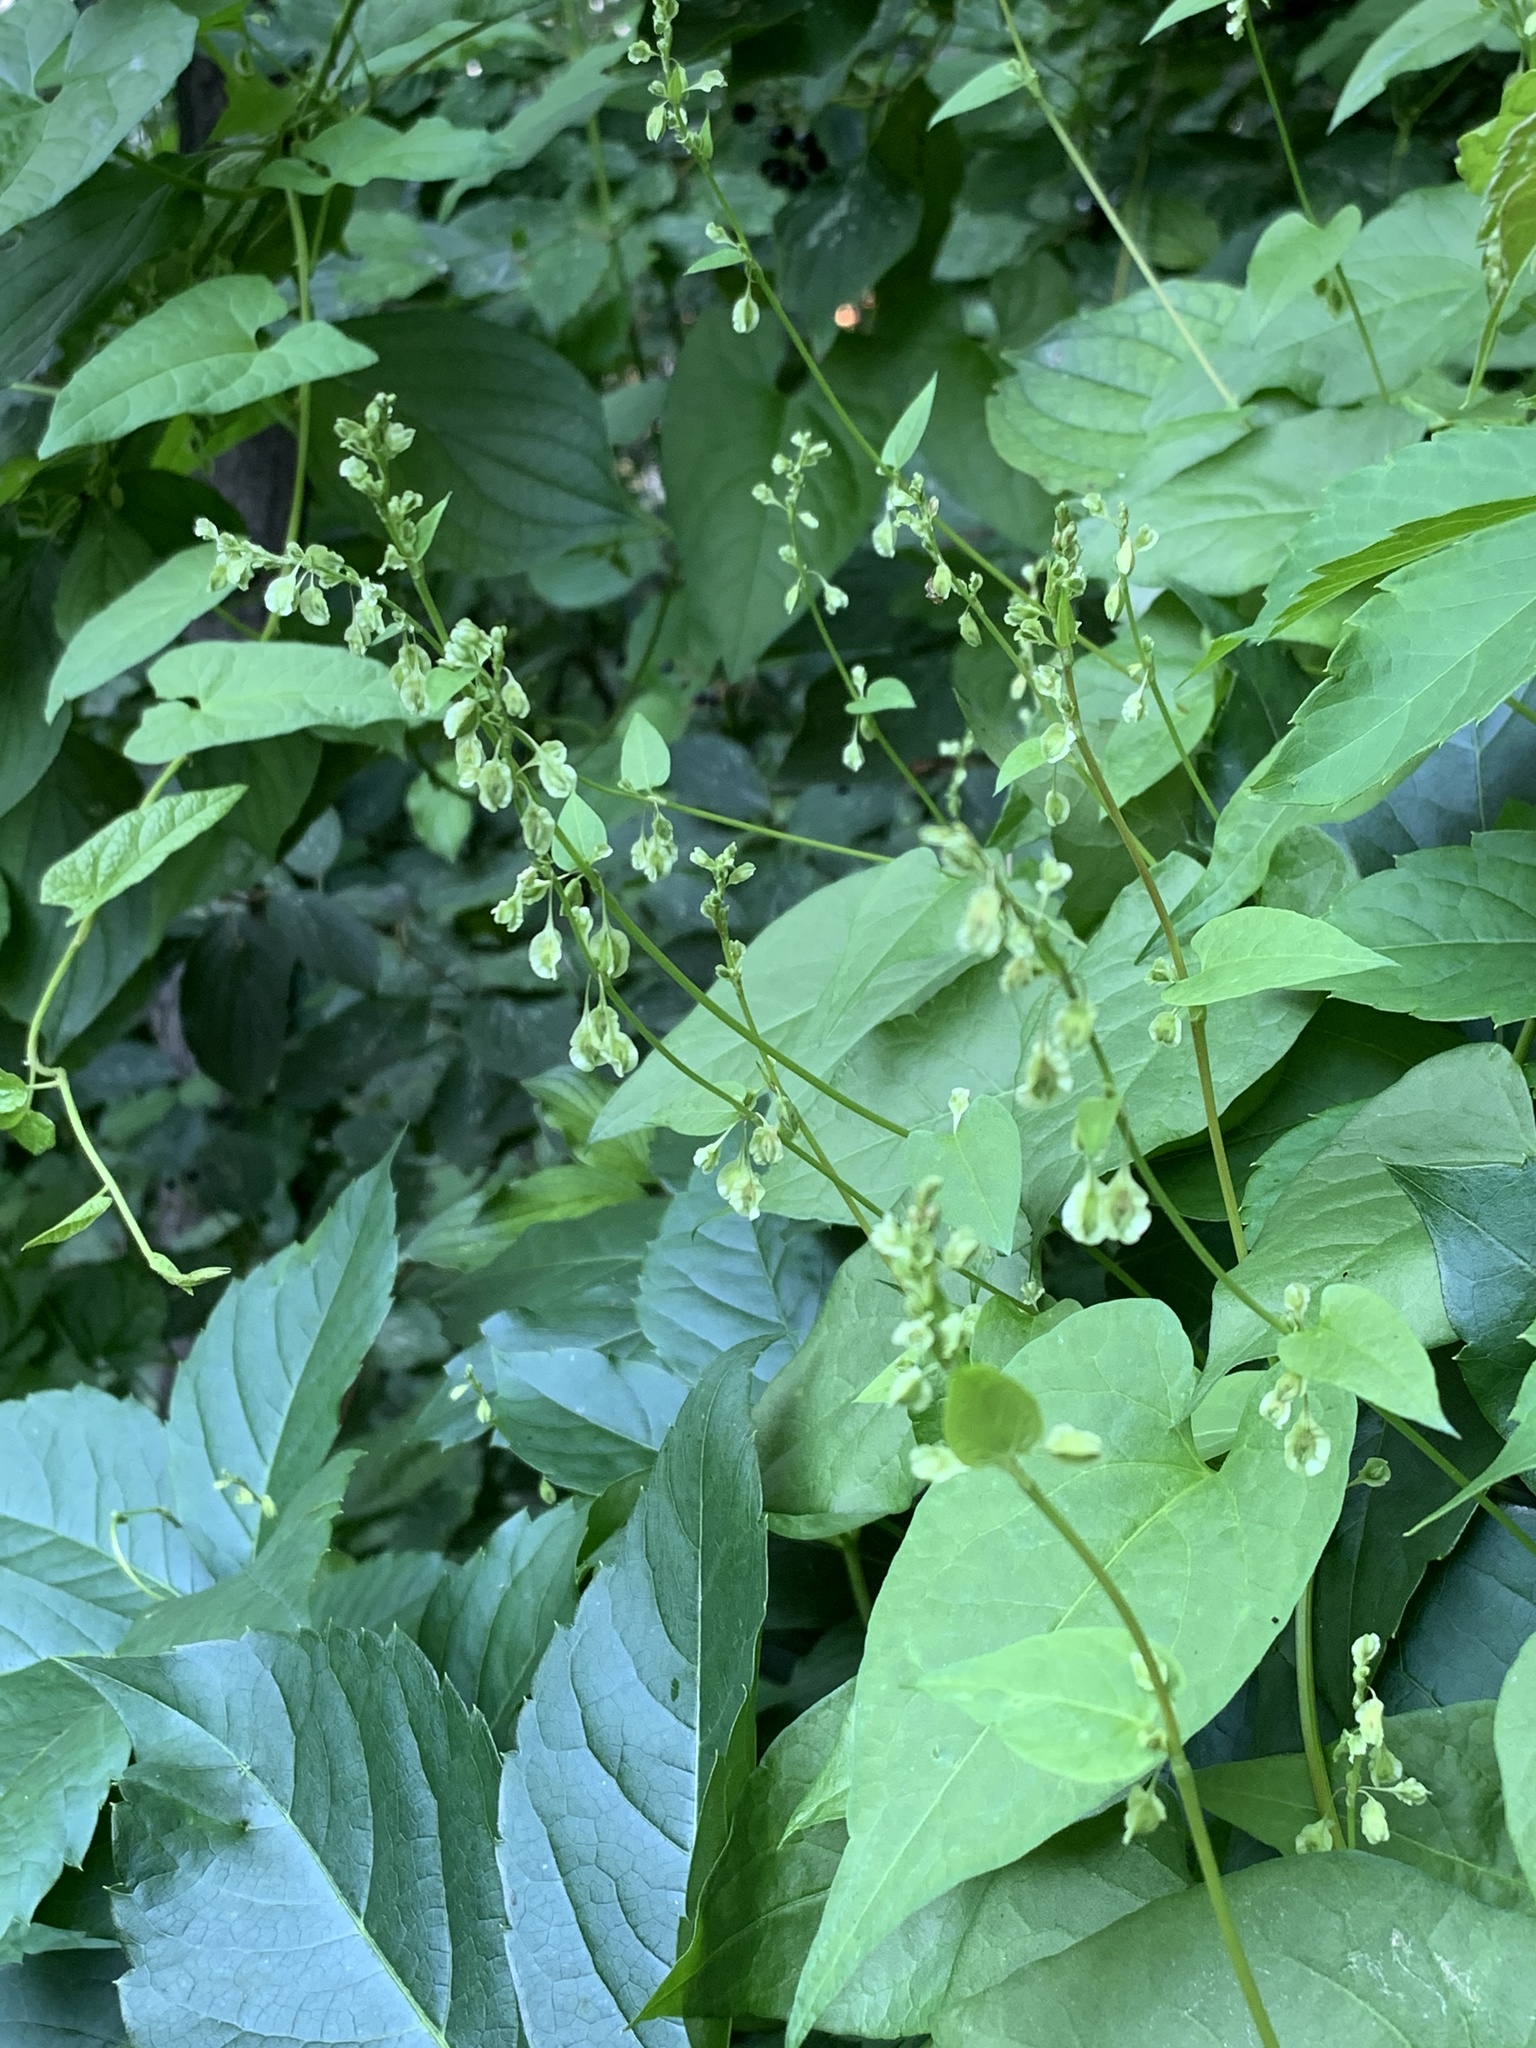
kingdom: Plantae
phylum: Tracheophyta
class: Magnoliopsida
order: Caryophyllales
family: Polygonaceae
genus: Fallopia
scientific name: Fallopia dumetorum
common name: Copse-bindweed
